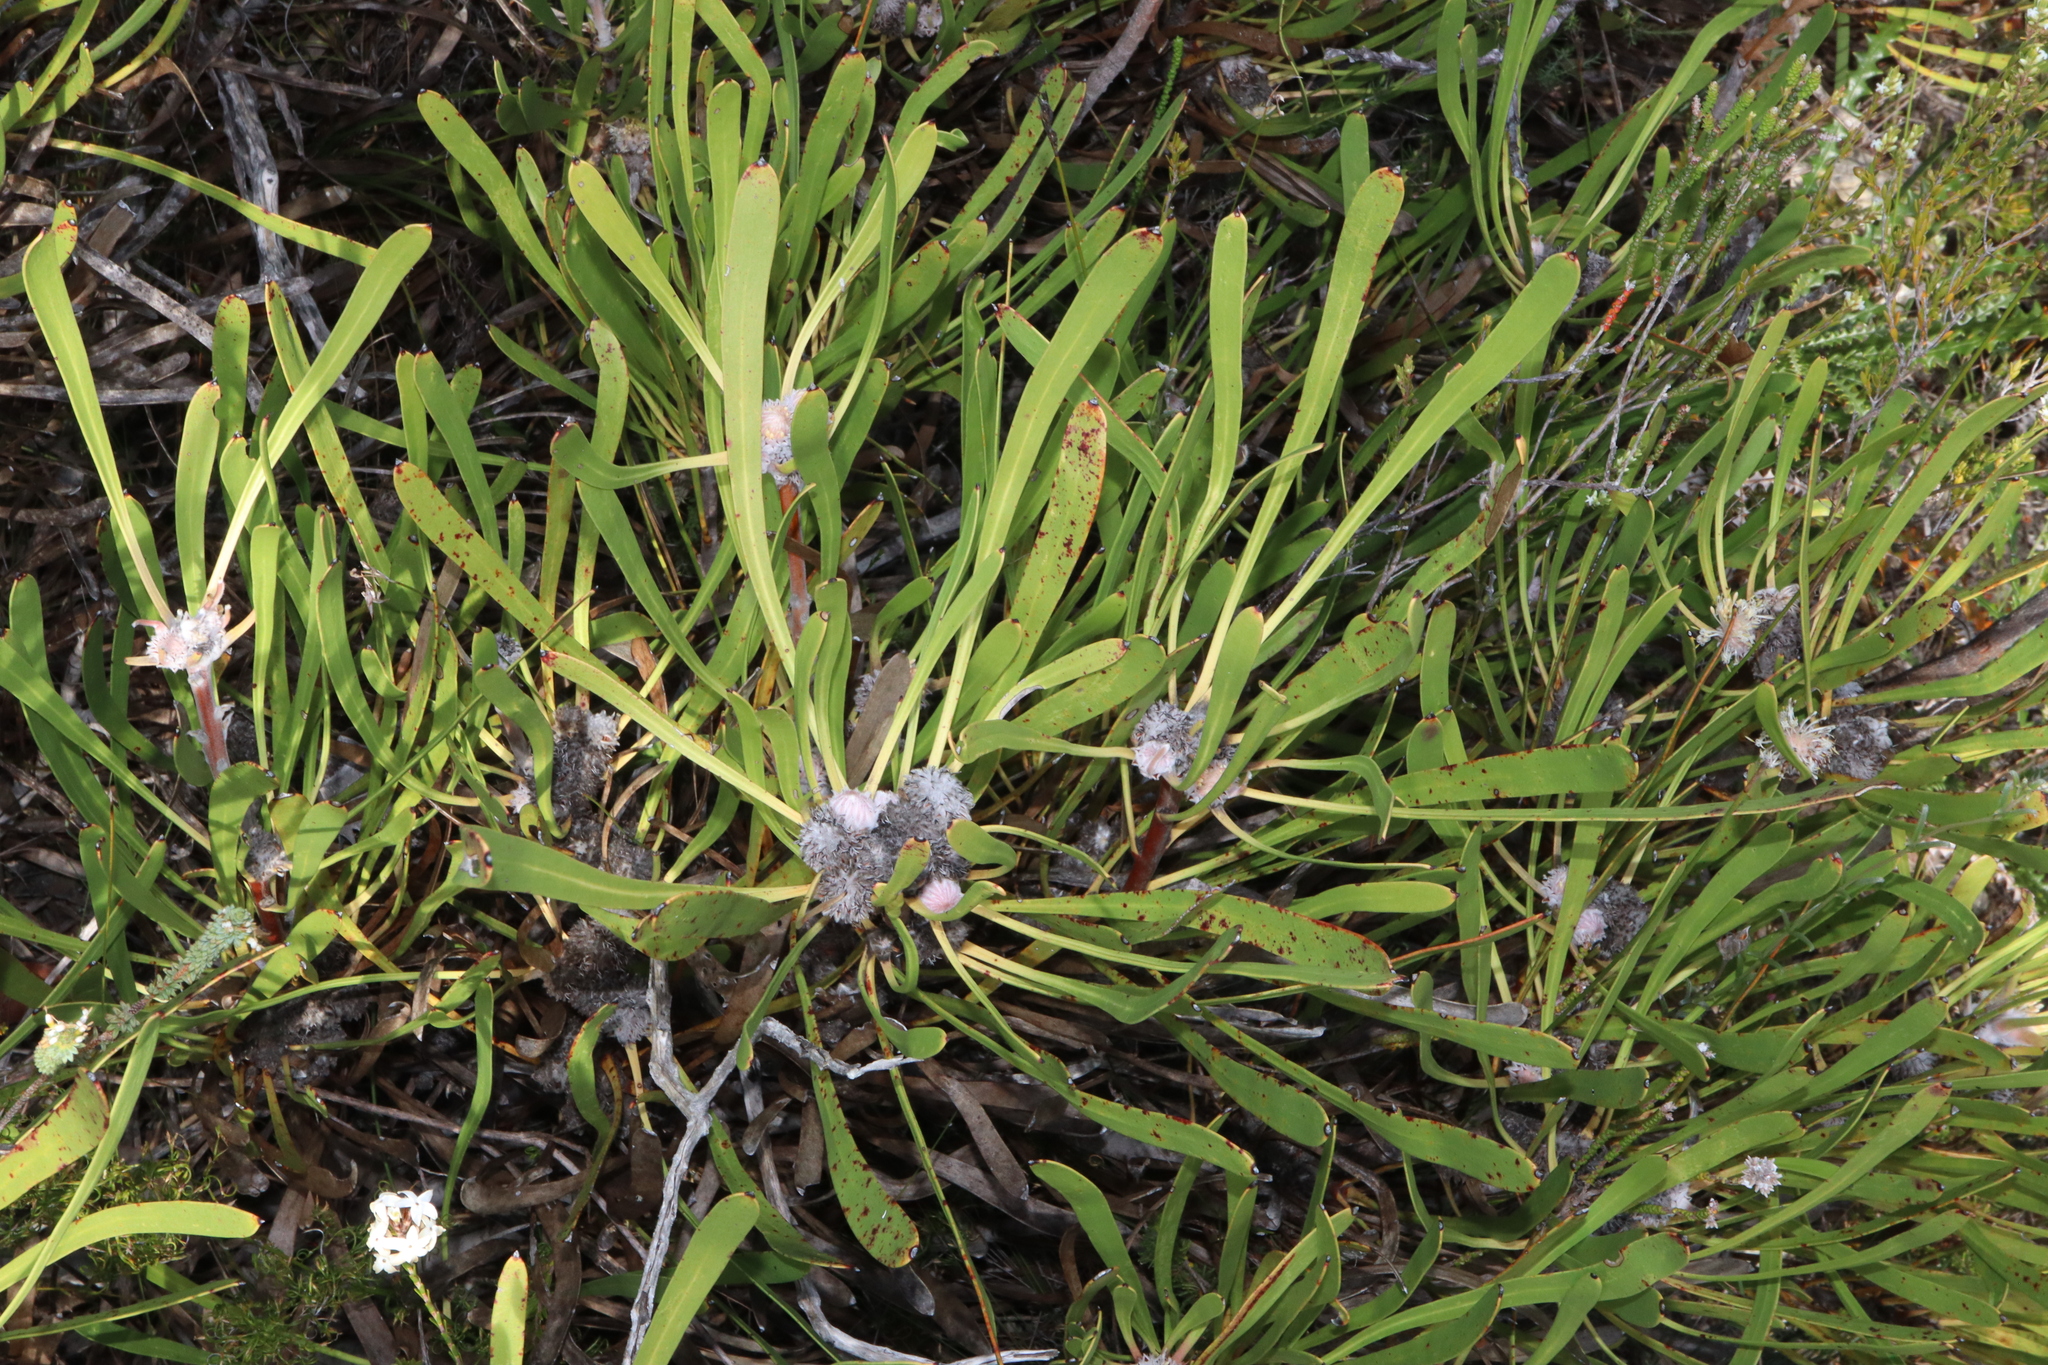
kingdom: Plantae
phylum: Tracheophyta
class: Magnoliopsida
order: Proteales
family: Proteaceae
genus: Isopogon
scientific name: Isopogon polycephalus
